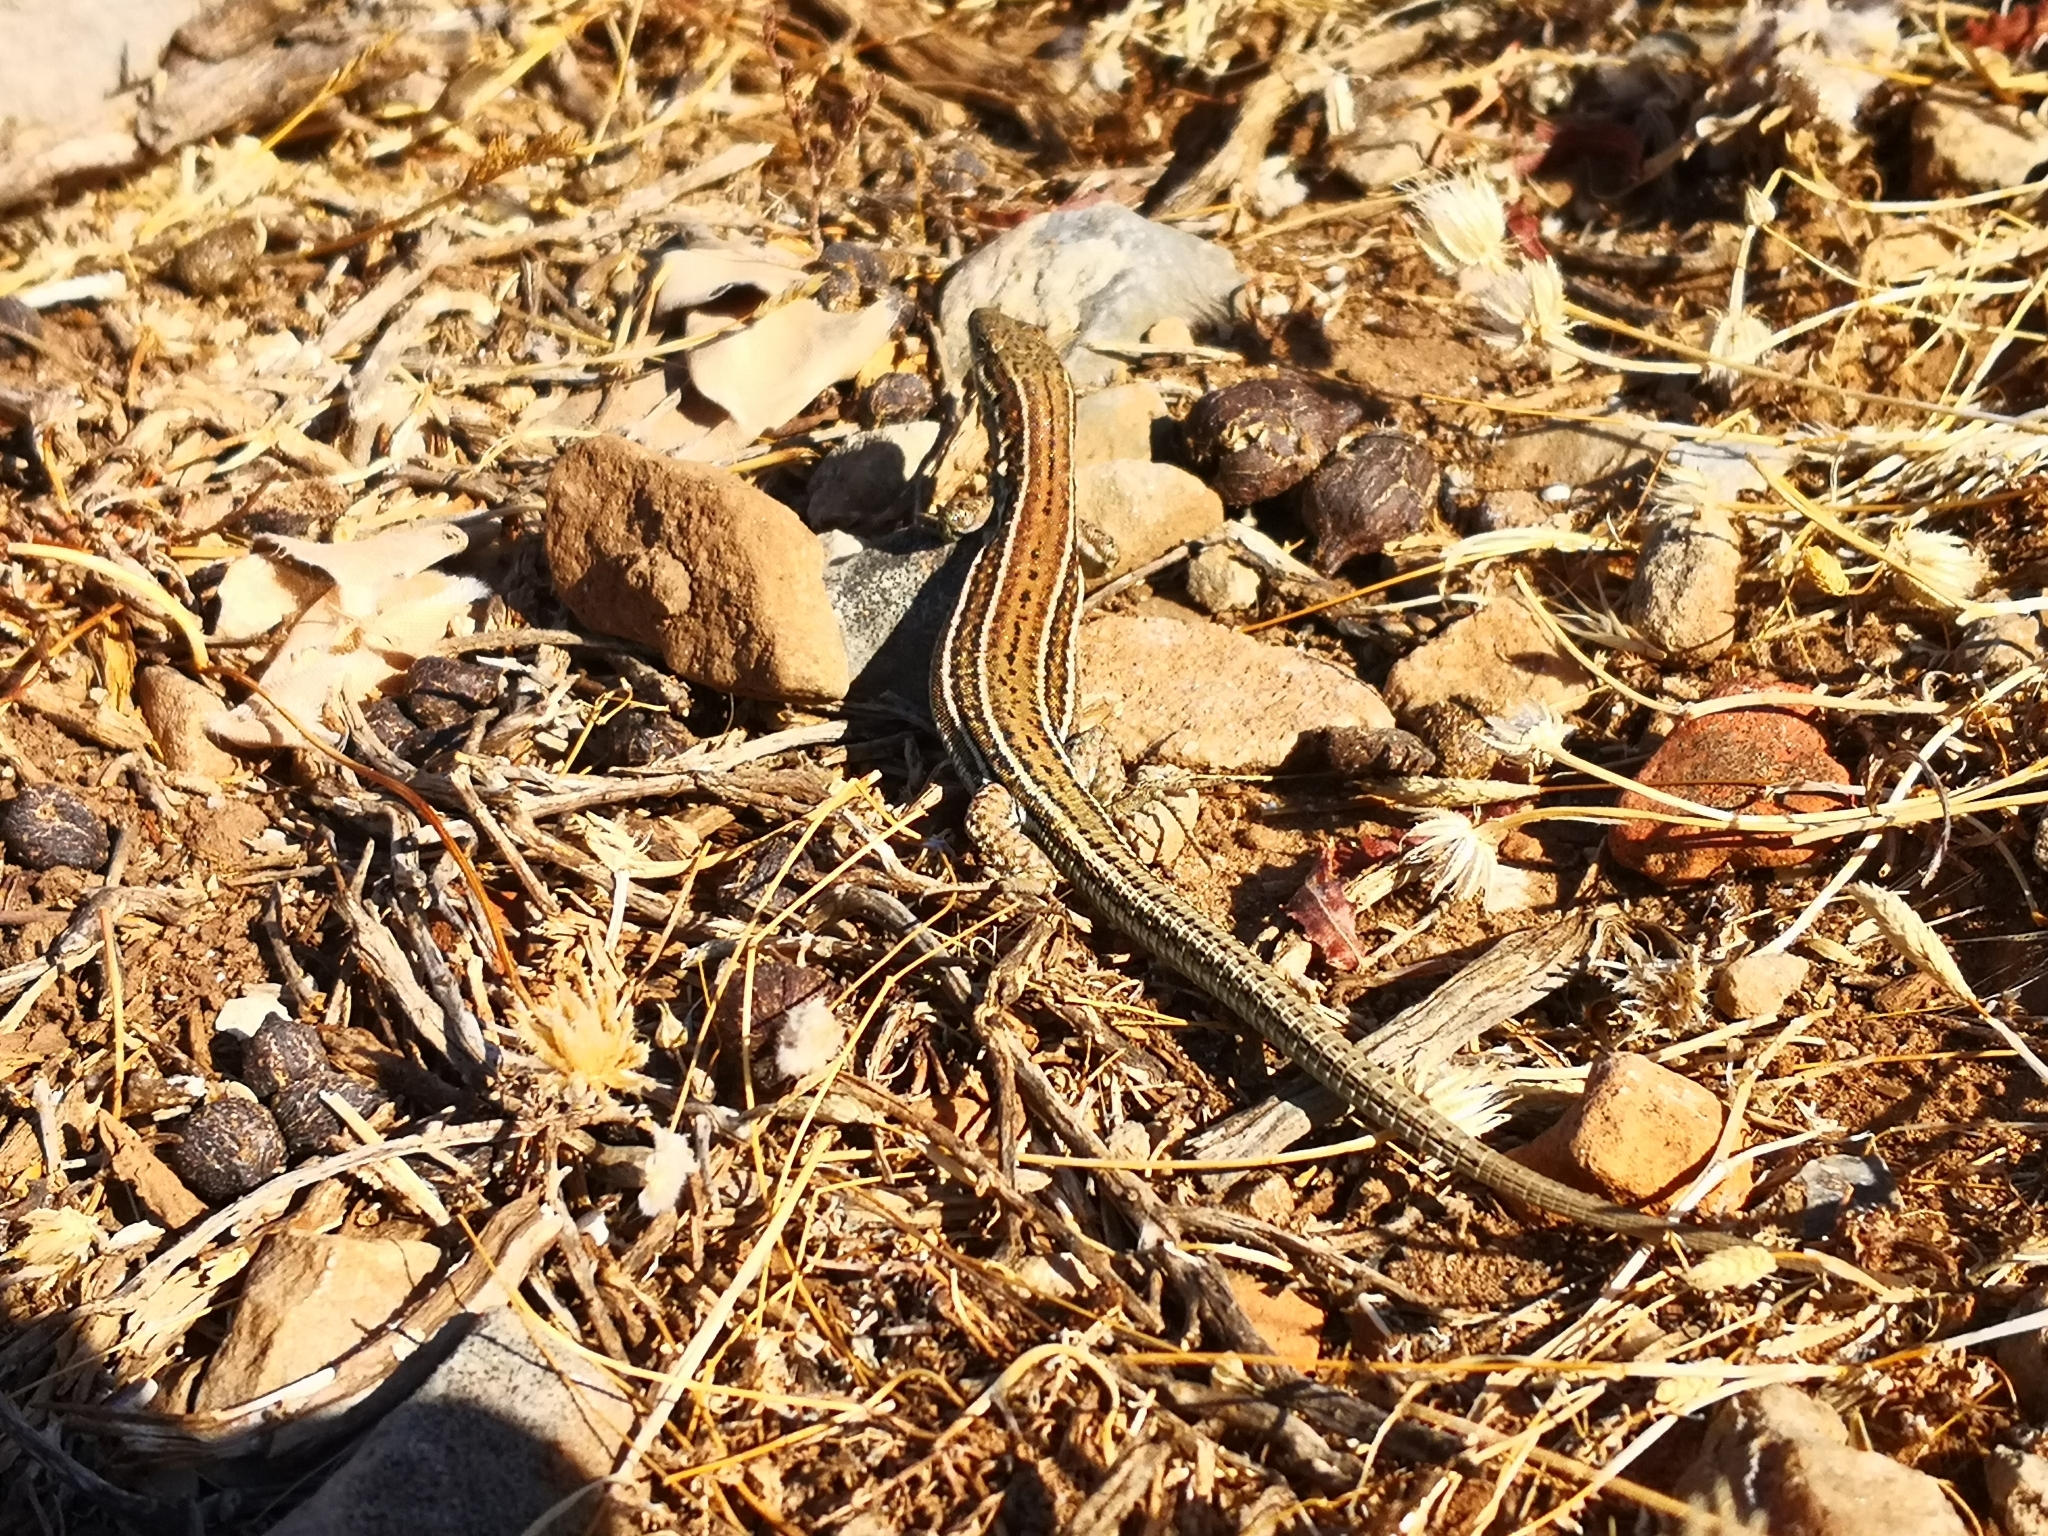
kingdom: Animalia
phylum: Chordata
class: Squamata
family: Lacertidae
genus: Podarcis
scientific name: Podarcis cretensis
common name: Cretan wall lizard
